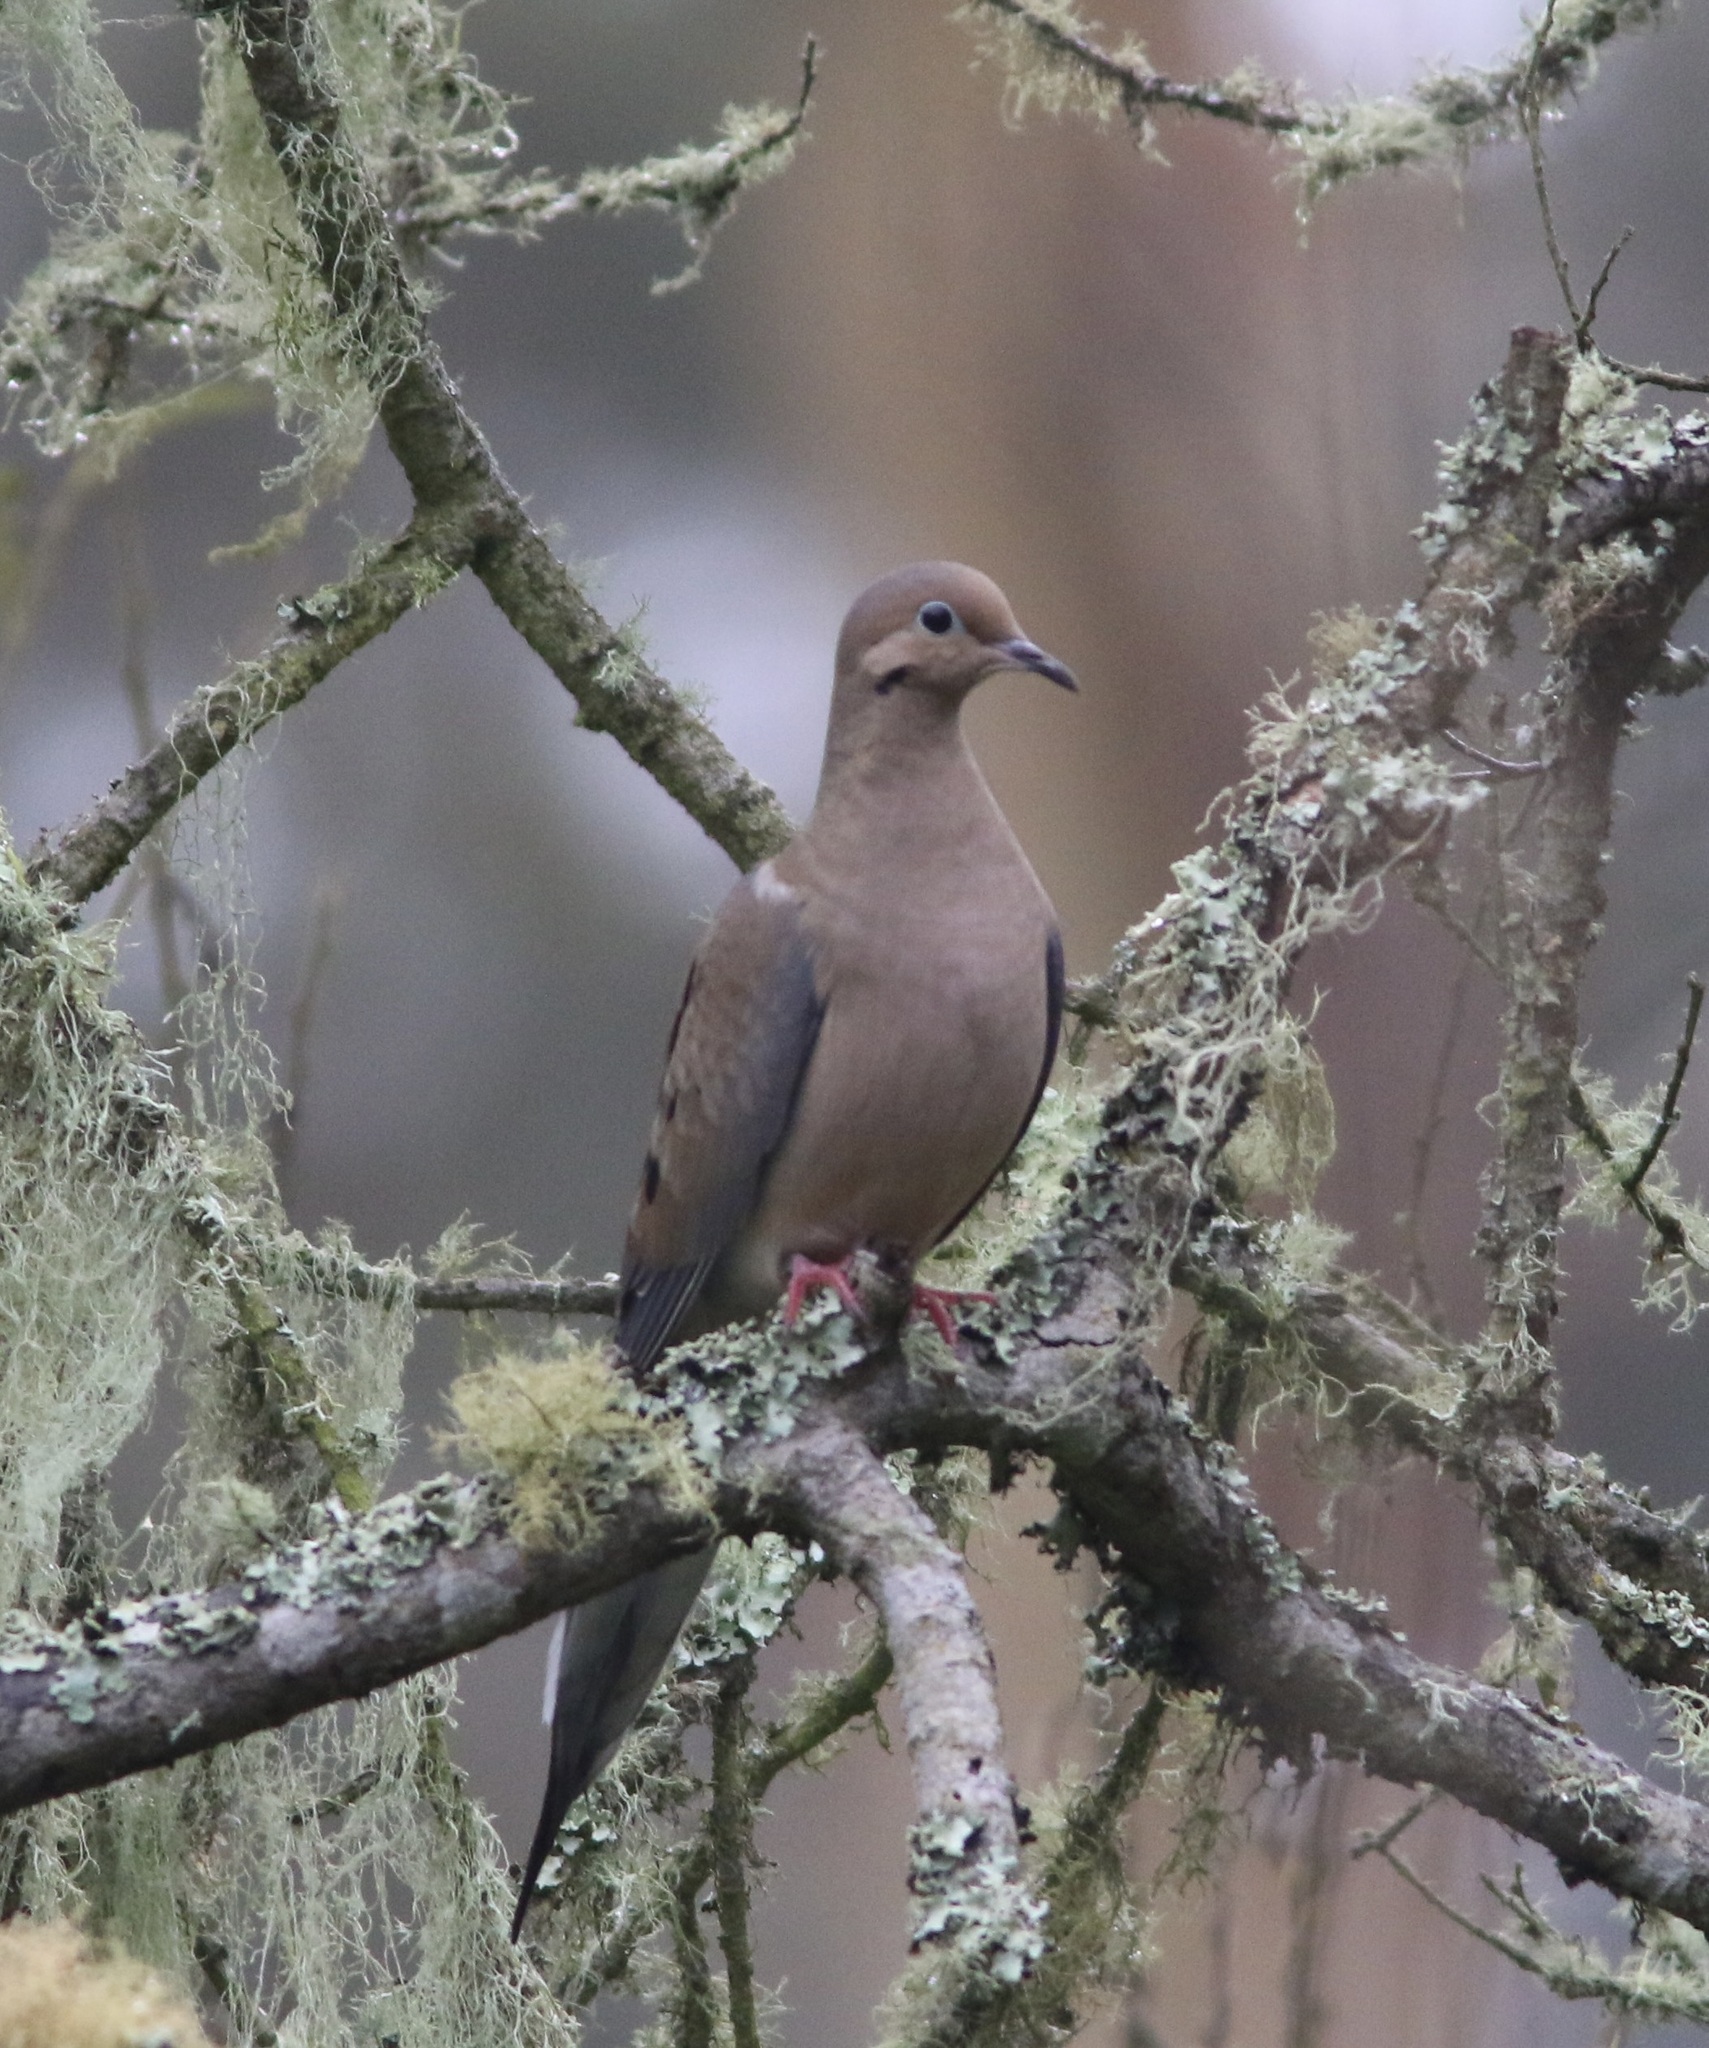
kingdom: Animalia
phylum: Chordata
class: Aves
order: Columbiformes
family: Columbidae
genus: Zenaida
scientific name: Zenaida macroura
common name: Mourning dove
